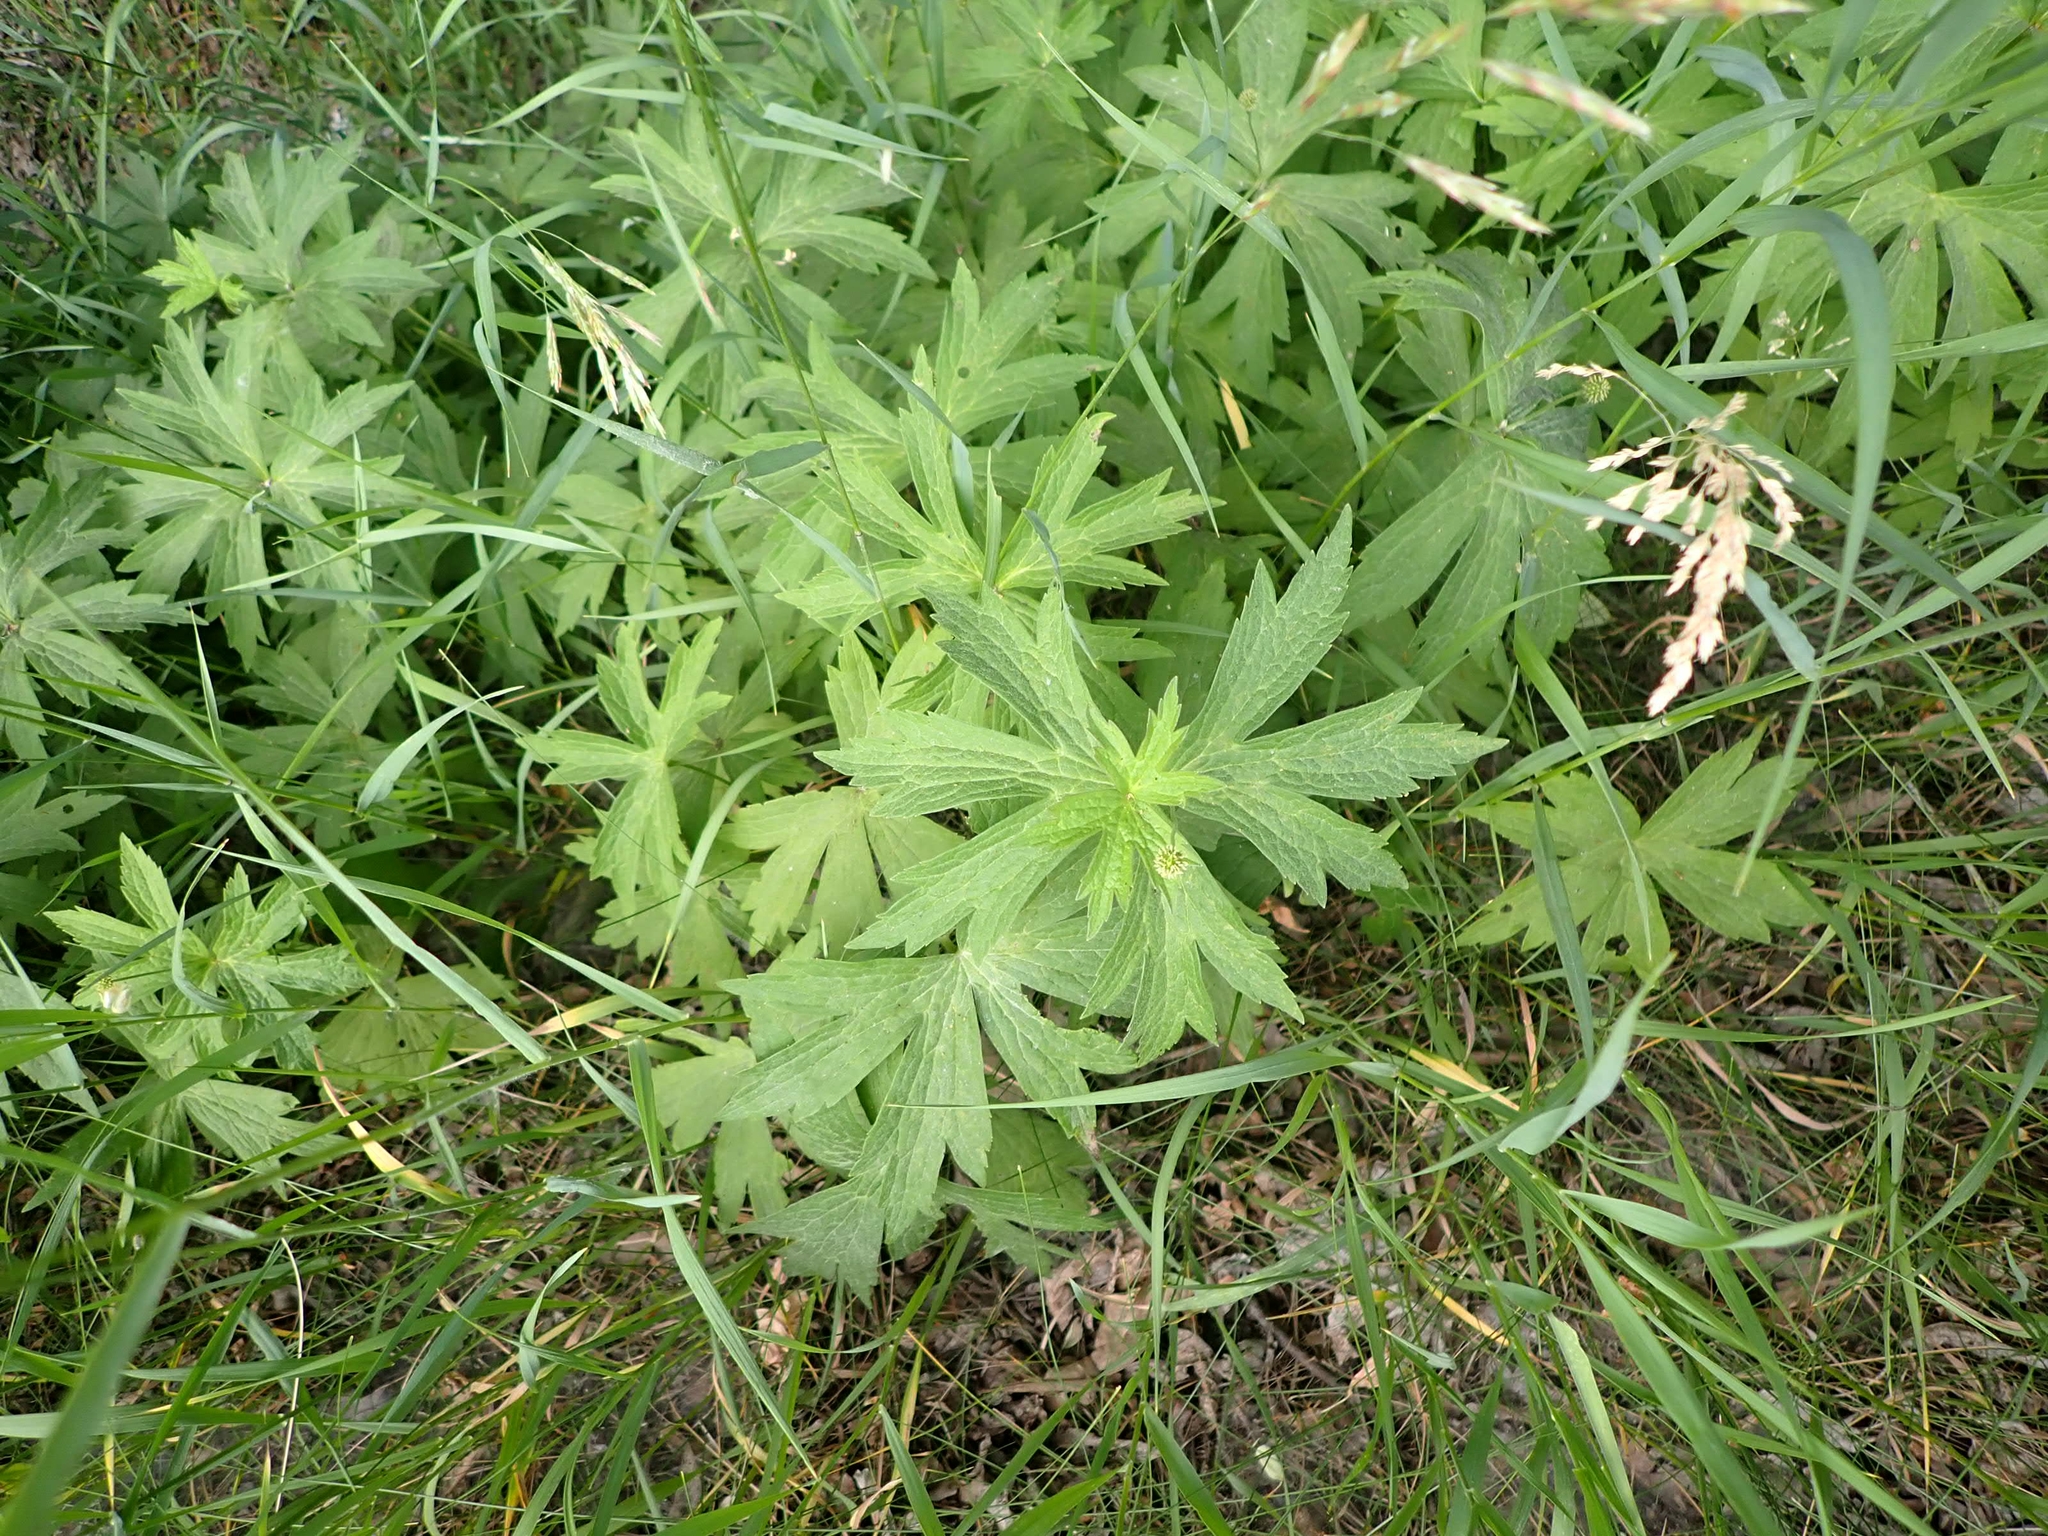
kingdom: Plantae
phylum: Tracheophyta
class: Magnoliopsida
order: Ranunculales
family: Ranunculaceae
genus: Anemonastrum
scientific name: Anemonastrum canadense
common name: Canada anemone
